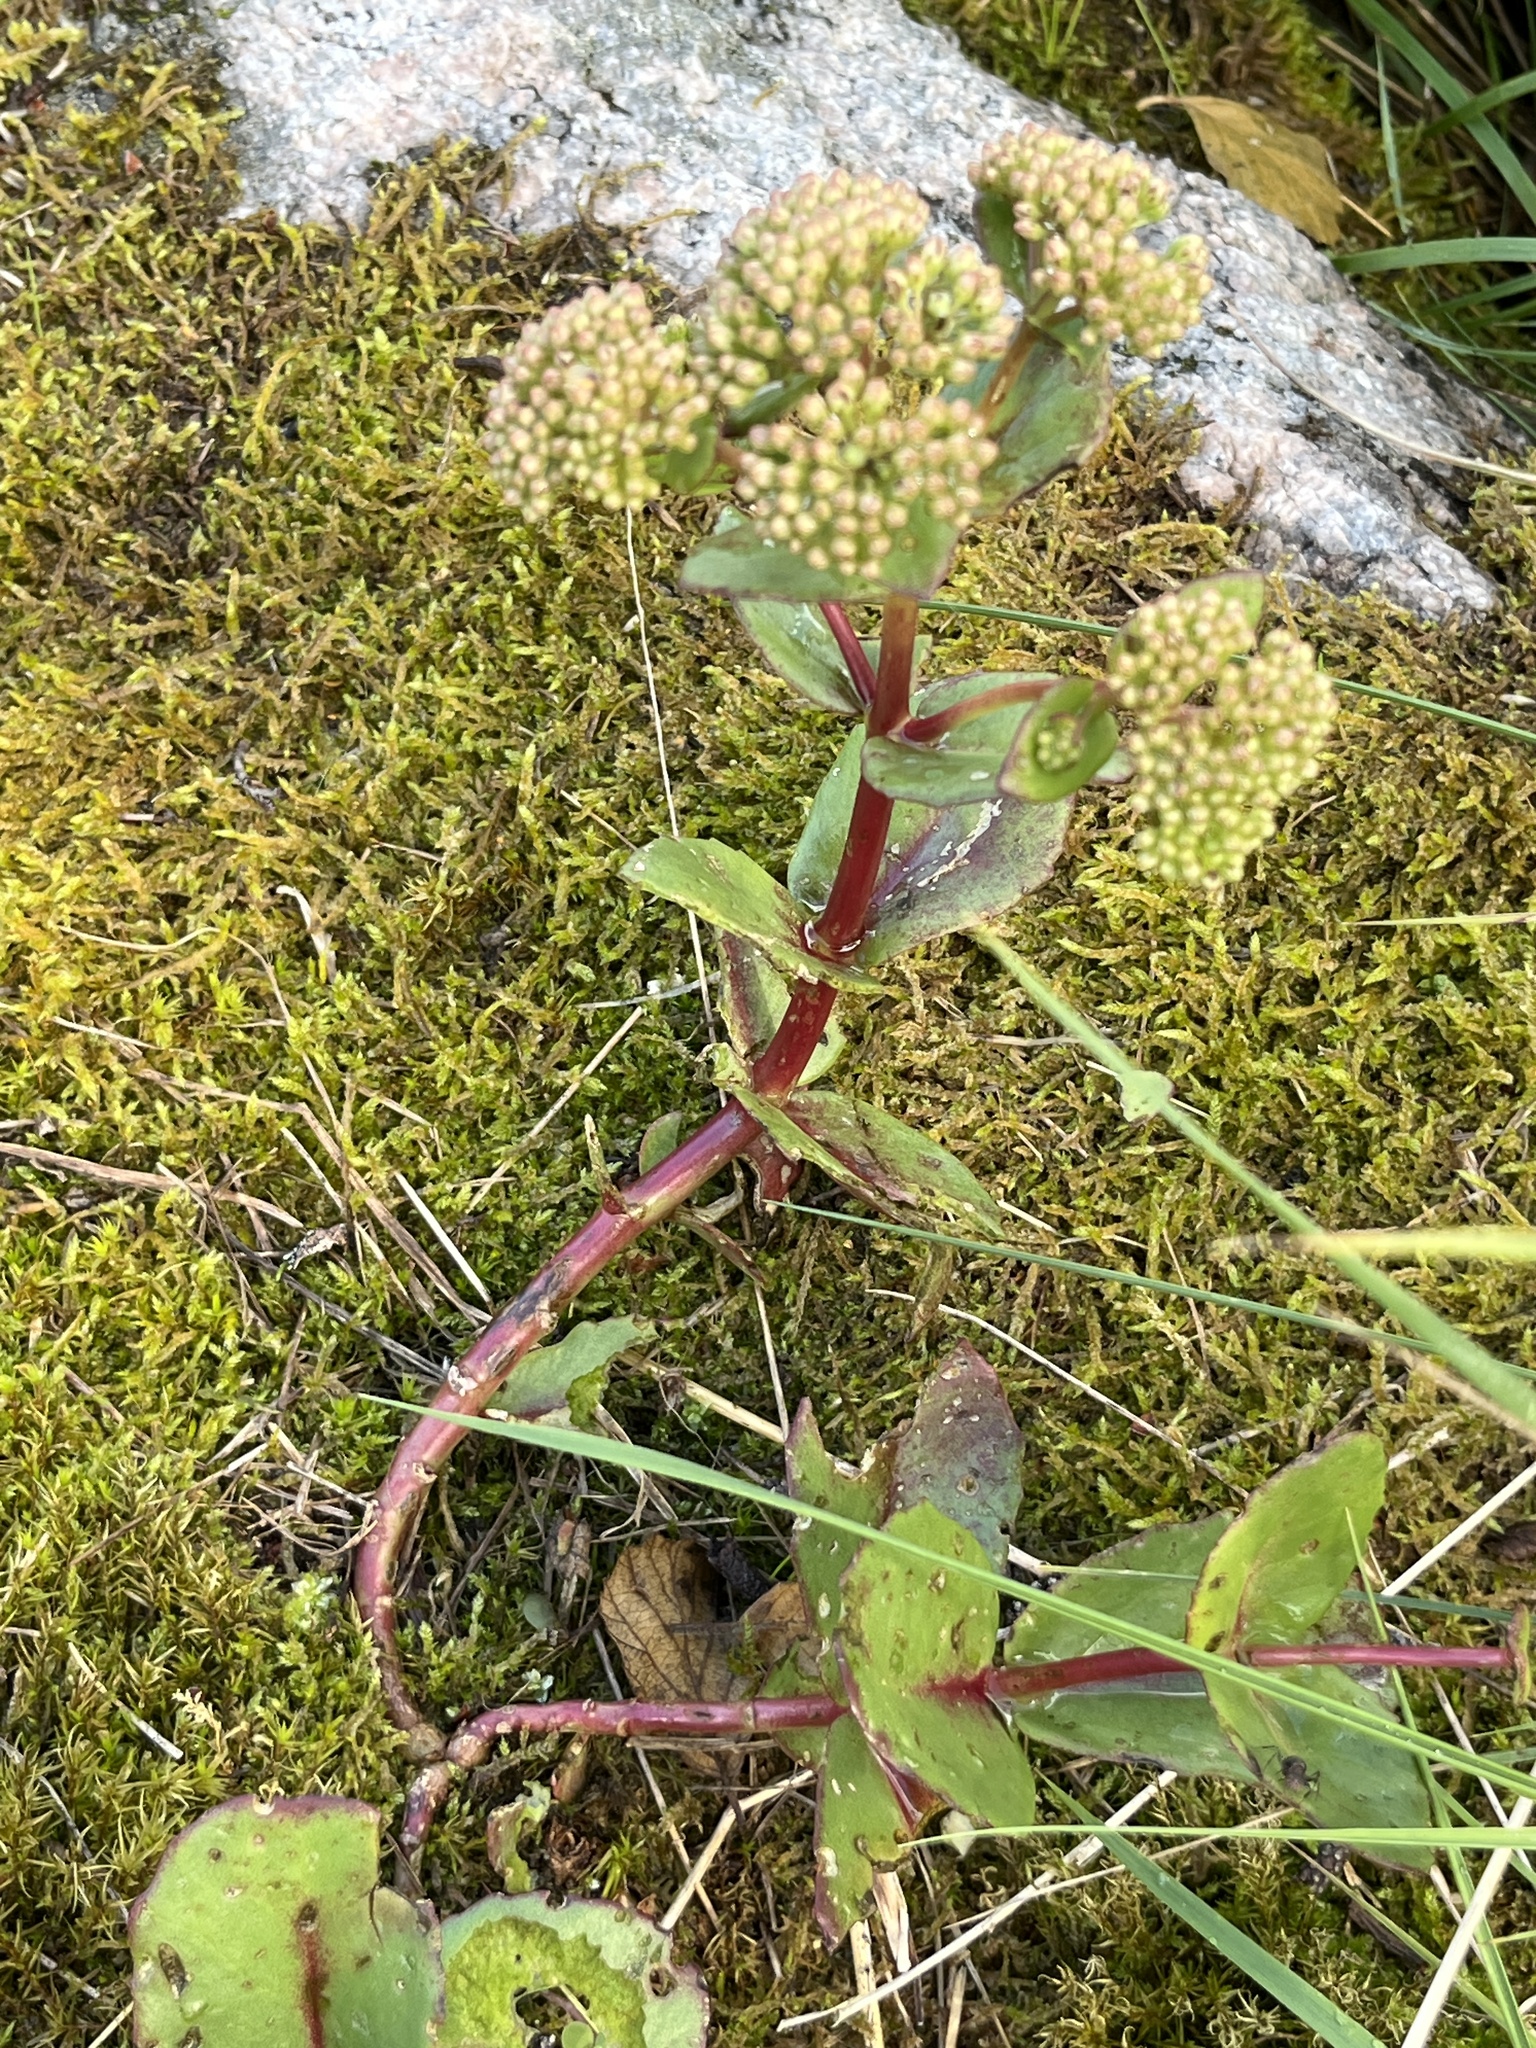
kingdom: Plantae
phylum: Tracheophyta
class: Magnoliopsida
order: Saxifragales
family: Crassulaceae
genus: Hylotelephium
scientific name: Hylotelephium maximum
